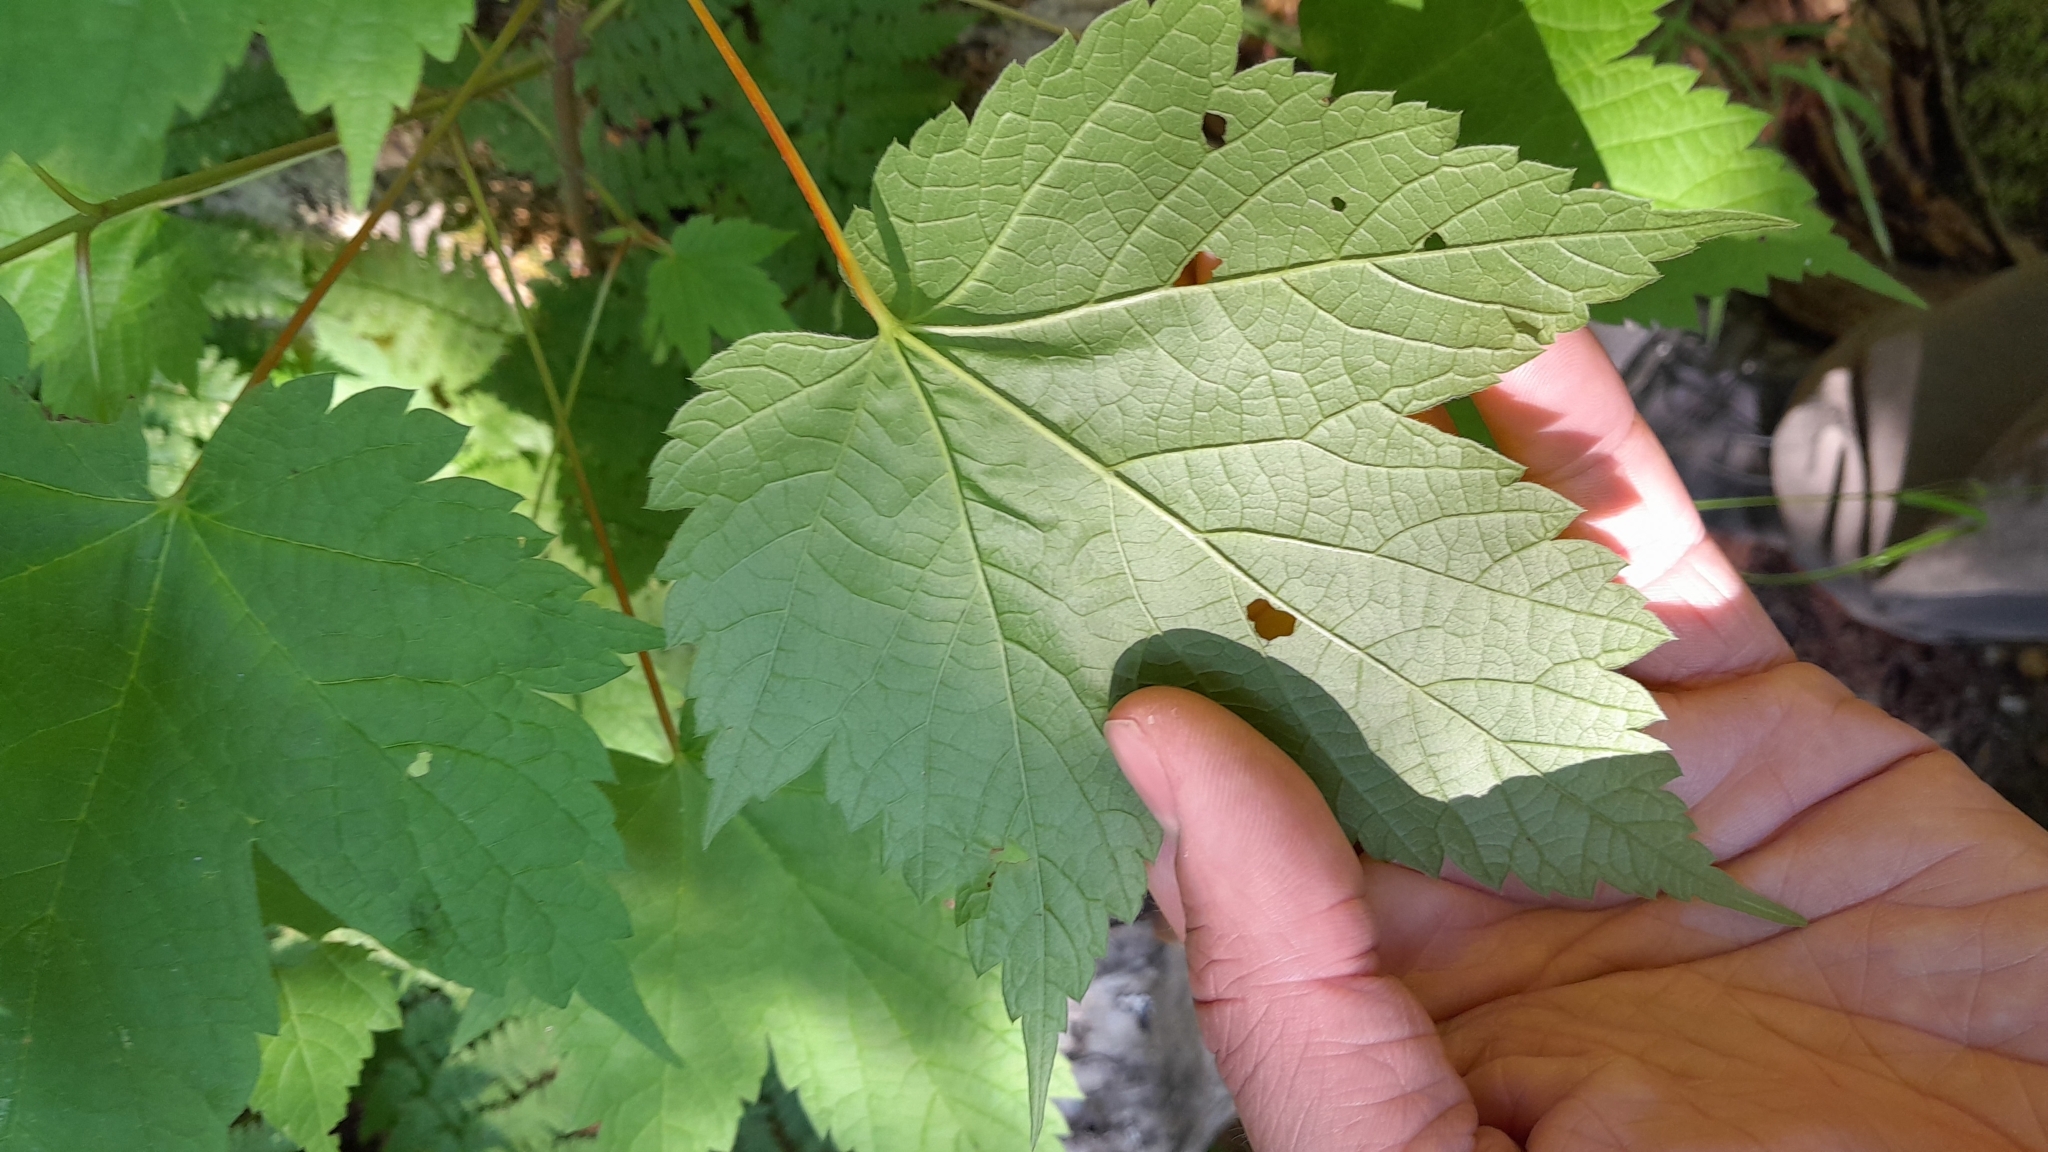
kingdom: Plantae
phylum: Tracheophyta
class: Magnoliopsida
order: Sapindales
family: Sapindaceae
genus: Acer
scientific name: Acer spicatum
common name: Mountain maple
